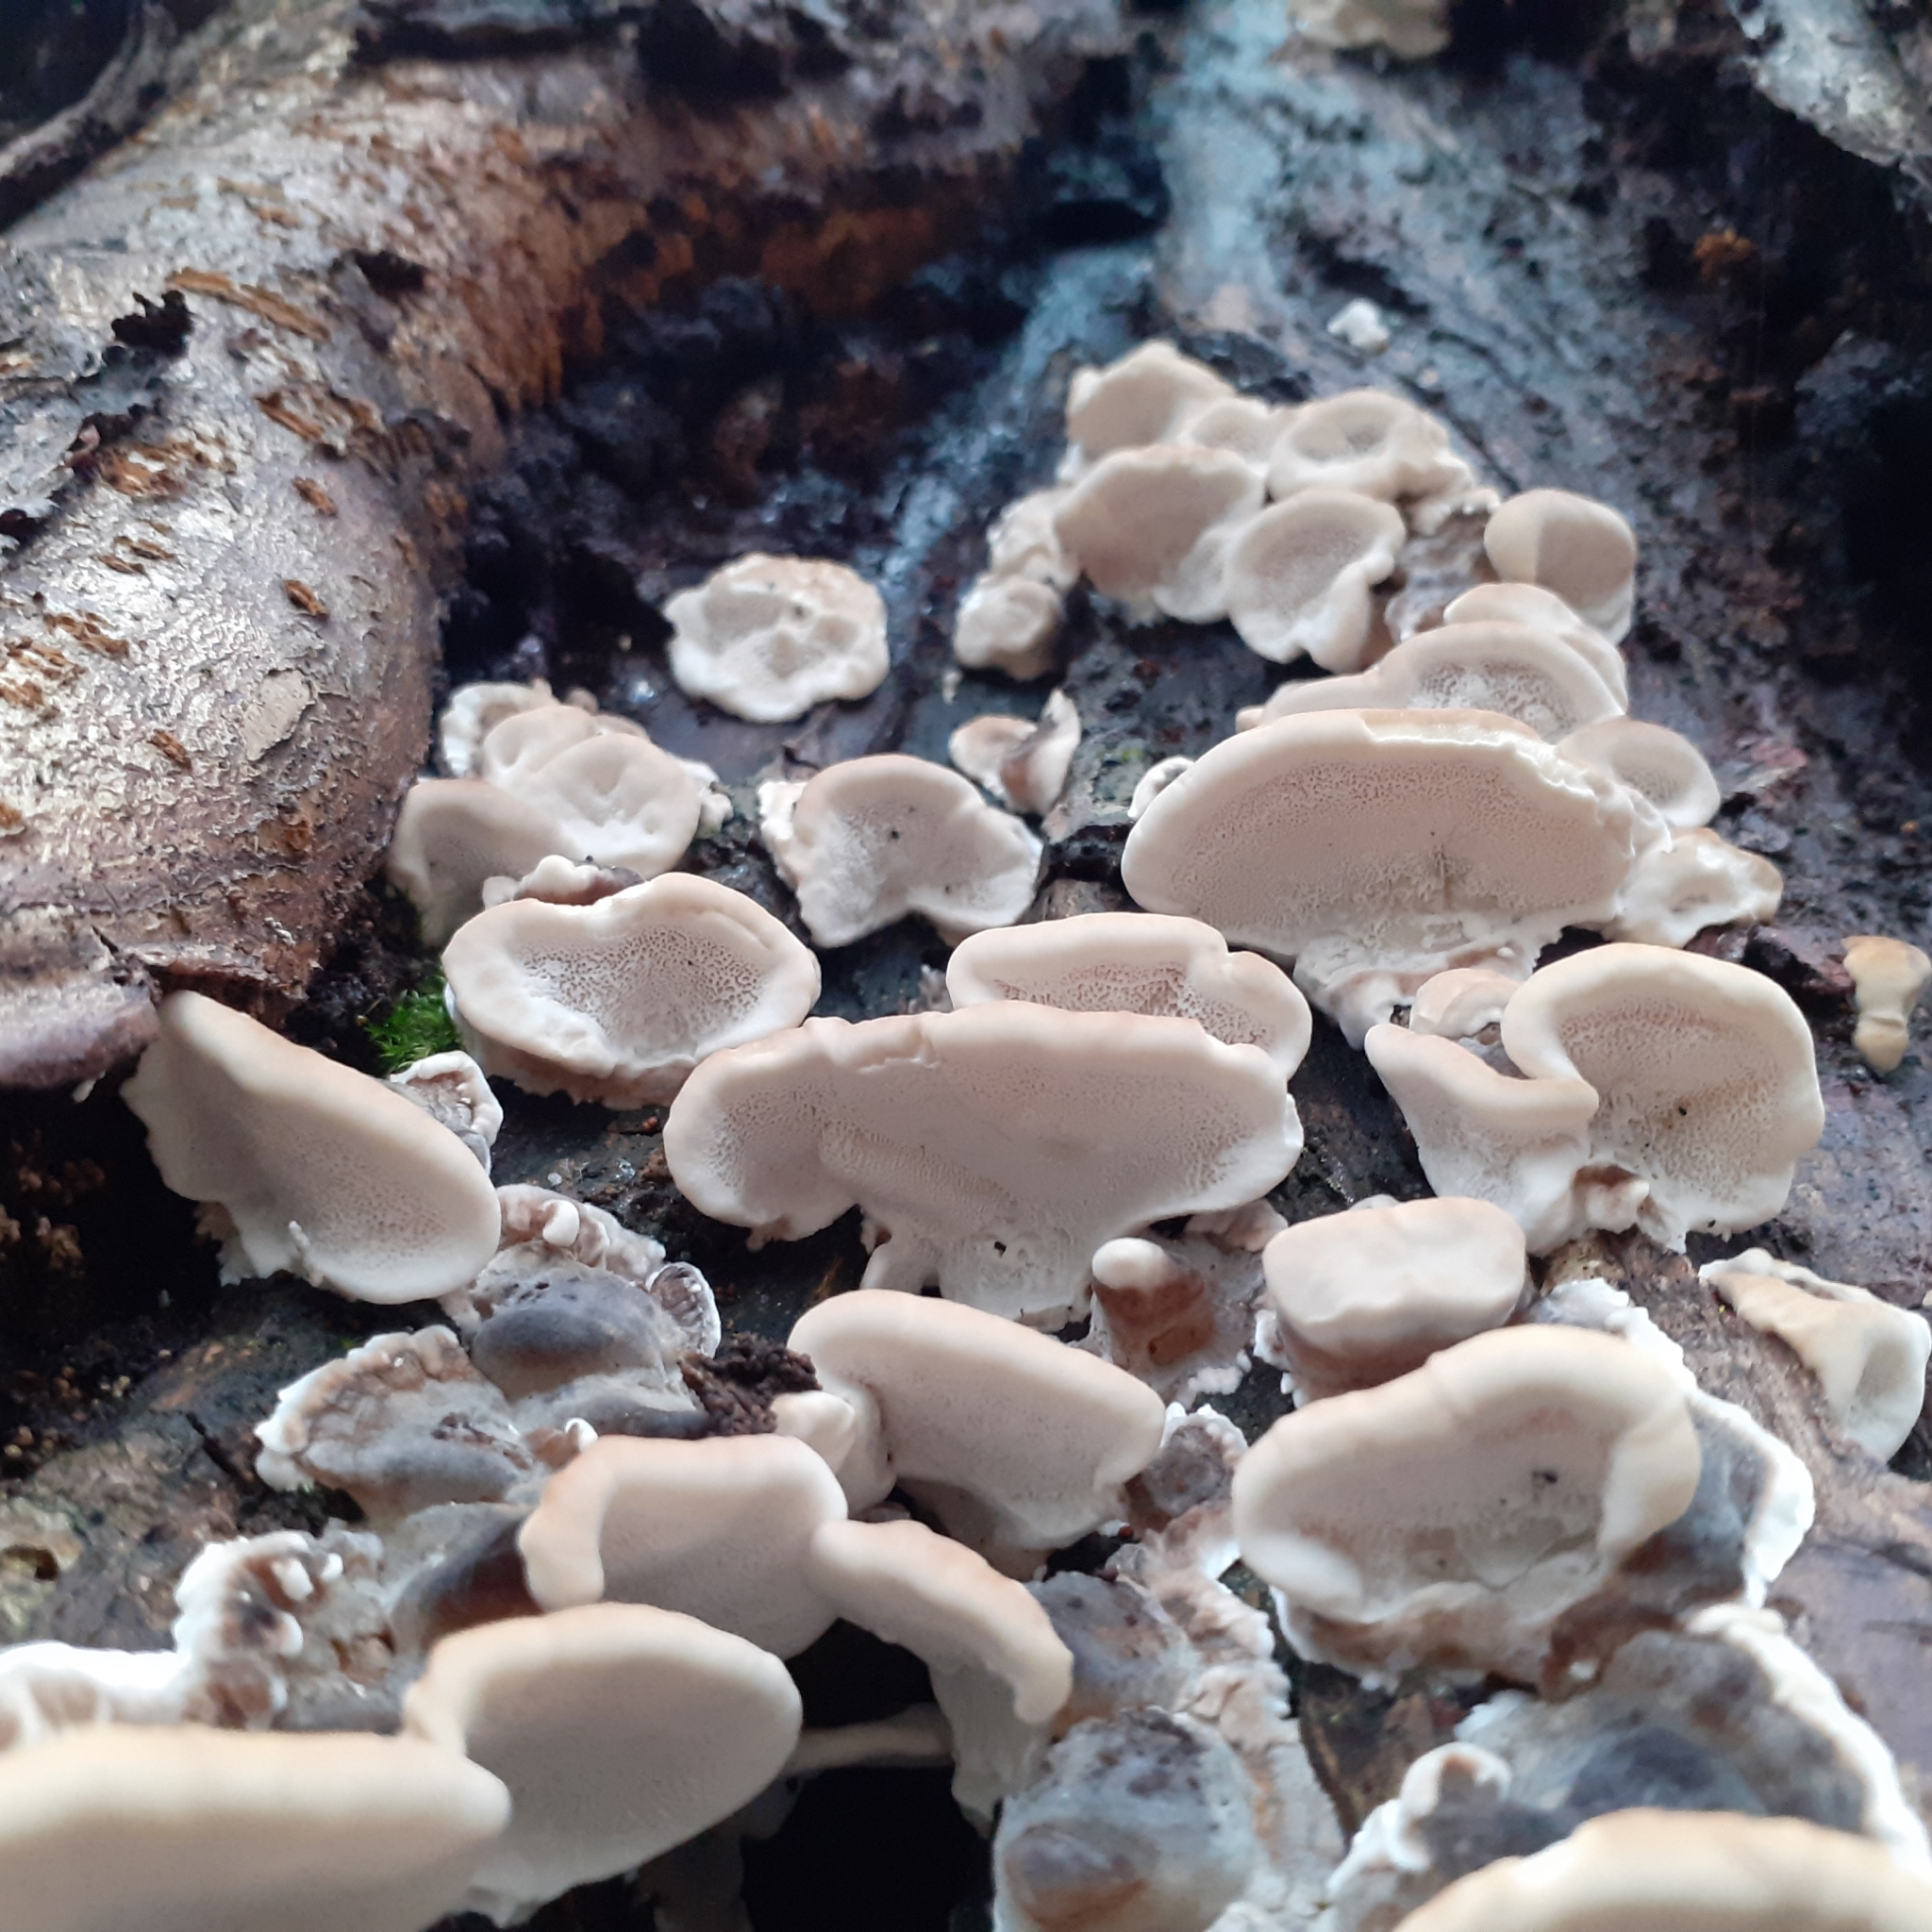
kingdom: Fungi
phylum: Basidiomycota
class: Agaricomycetes
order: Polyporales
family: Polyporaceae
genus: Trametes
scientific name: Trametes versicolor
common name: Turkeytail
